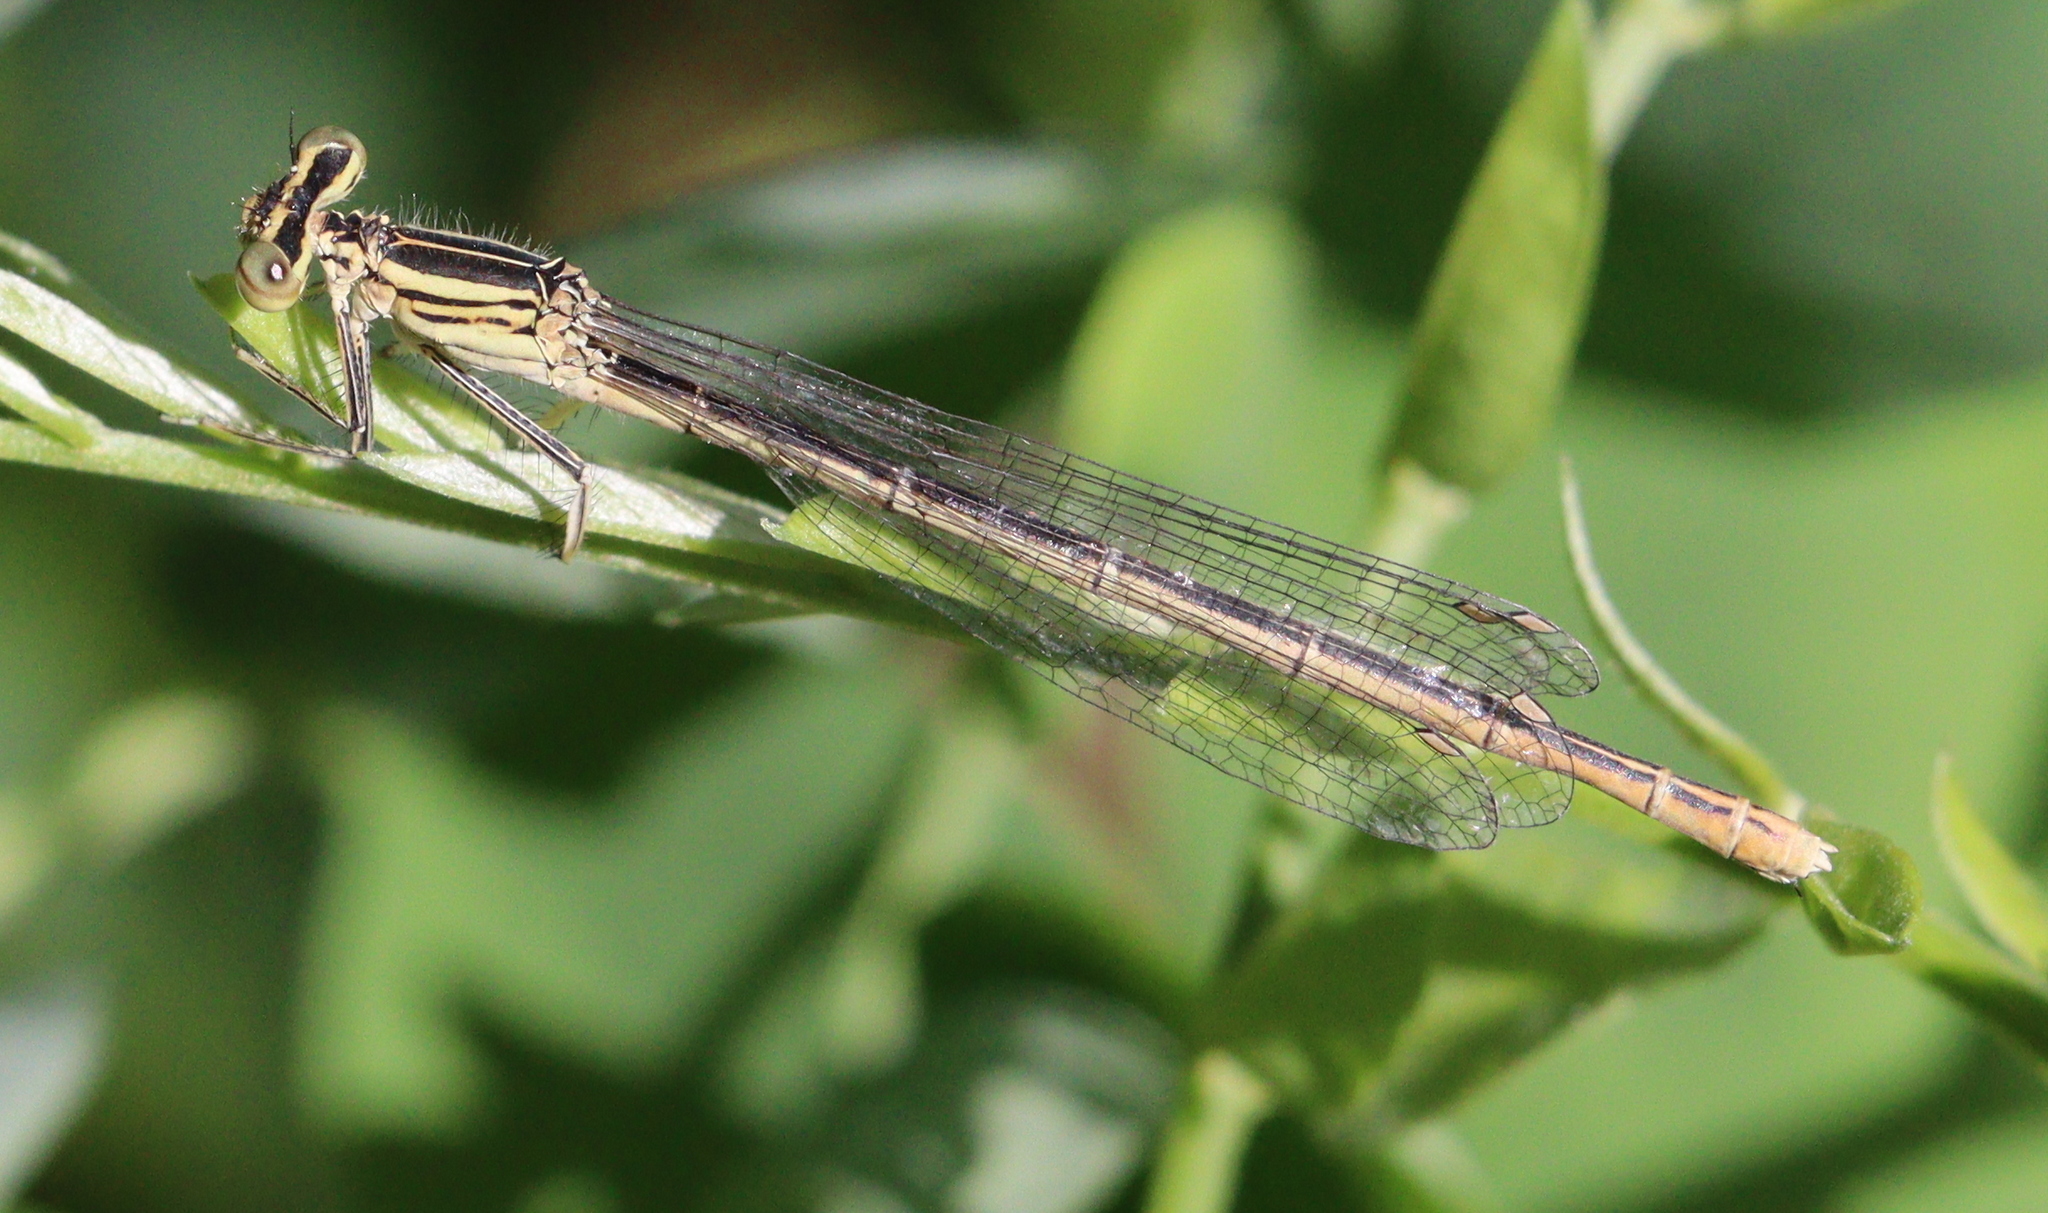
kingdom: Animalia
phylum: Arthropoda
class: Insecta
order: Odonata
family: Platycnemididae
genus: Platycnemis
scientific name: Platycnemis pennipes
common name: White-legged damselfly
